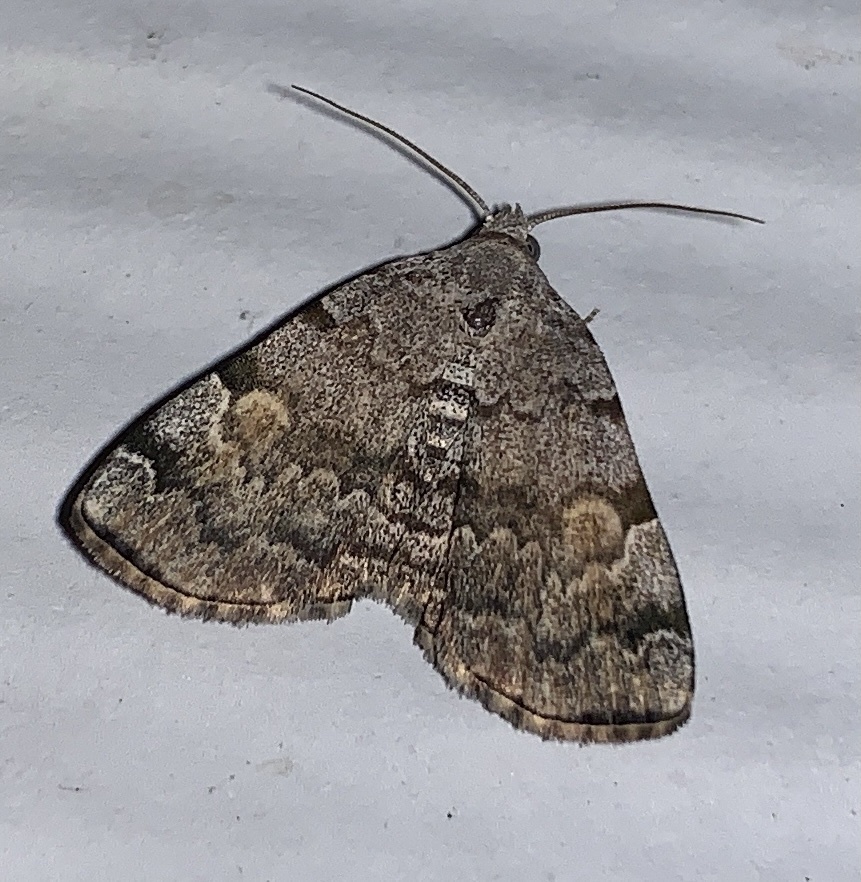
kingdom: Animalia
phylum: Arthropoda
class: Insecta
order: Lepidoptera
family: Erebidae
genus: Idia
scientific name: Idia americalis
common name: American idia moth
